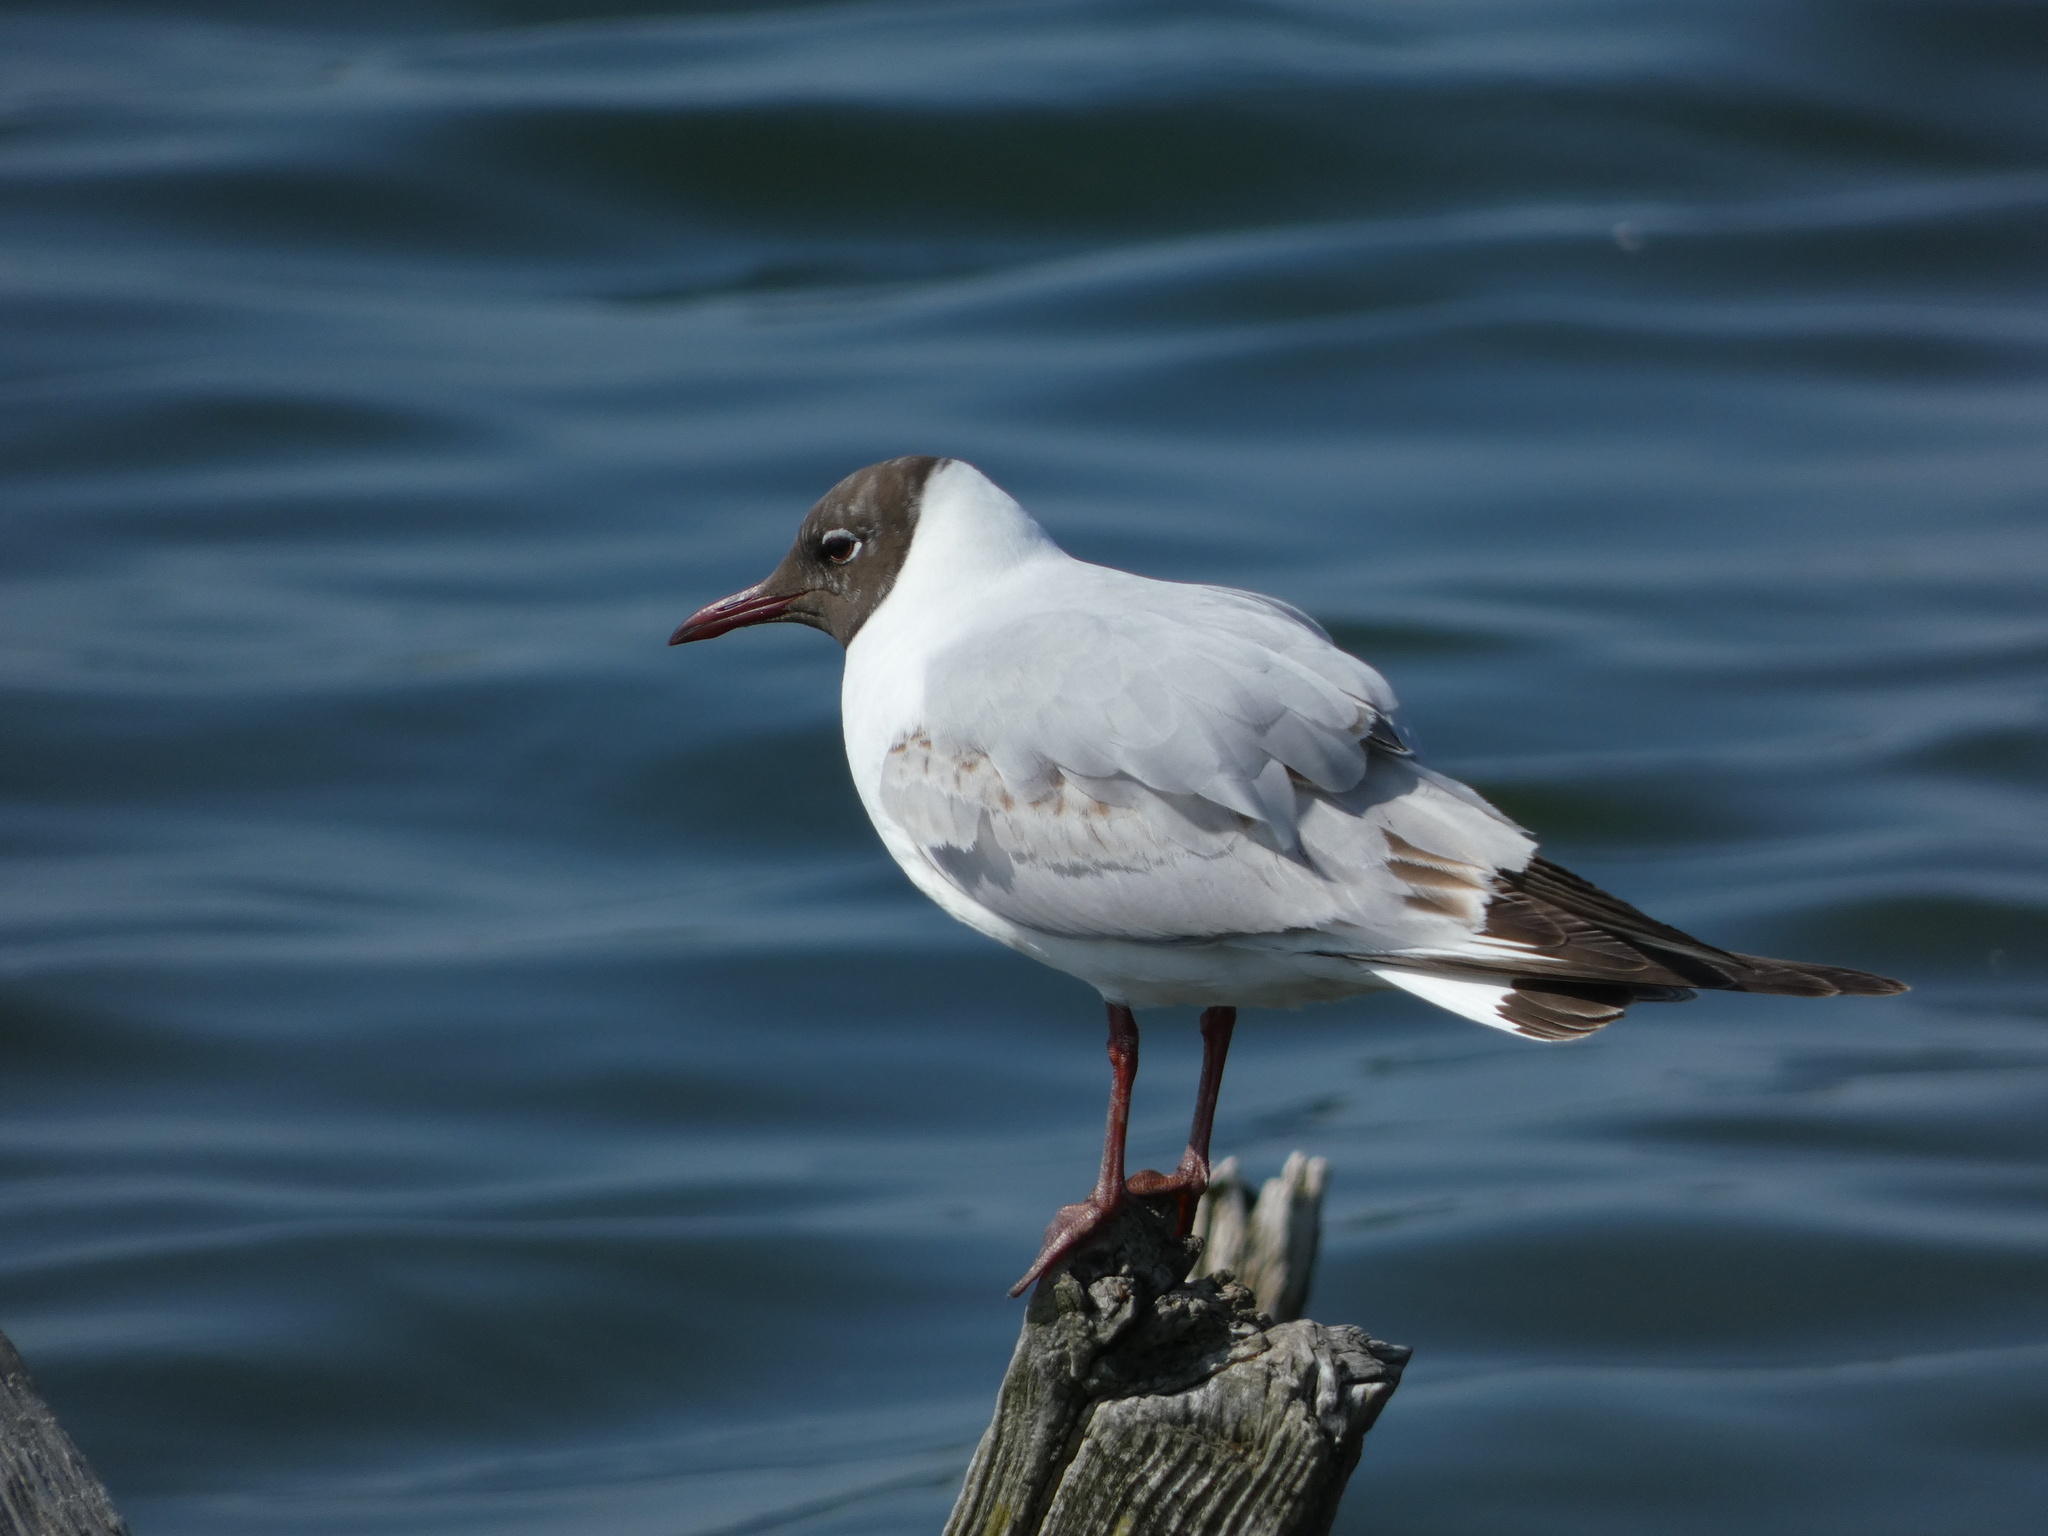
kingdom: Animalia
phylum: Chordata
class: Aves
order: Charadriiformes
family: Laridae
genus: Chroicocephalus
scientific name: Chroicocephalus ridibundus
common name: Black-headed gull
